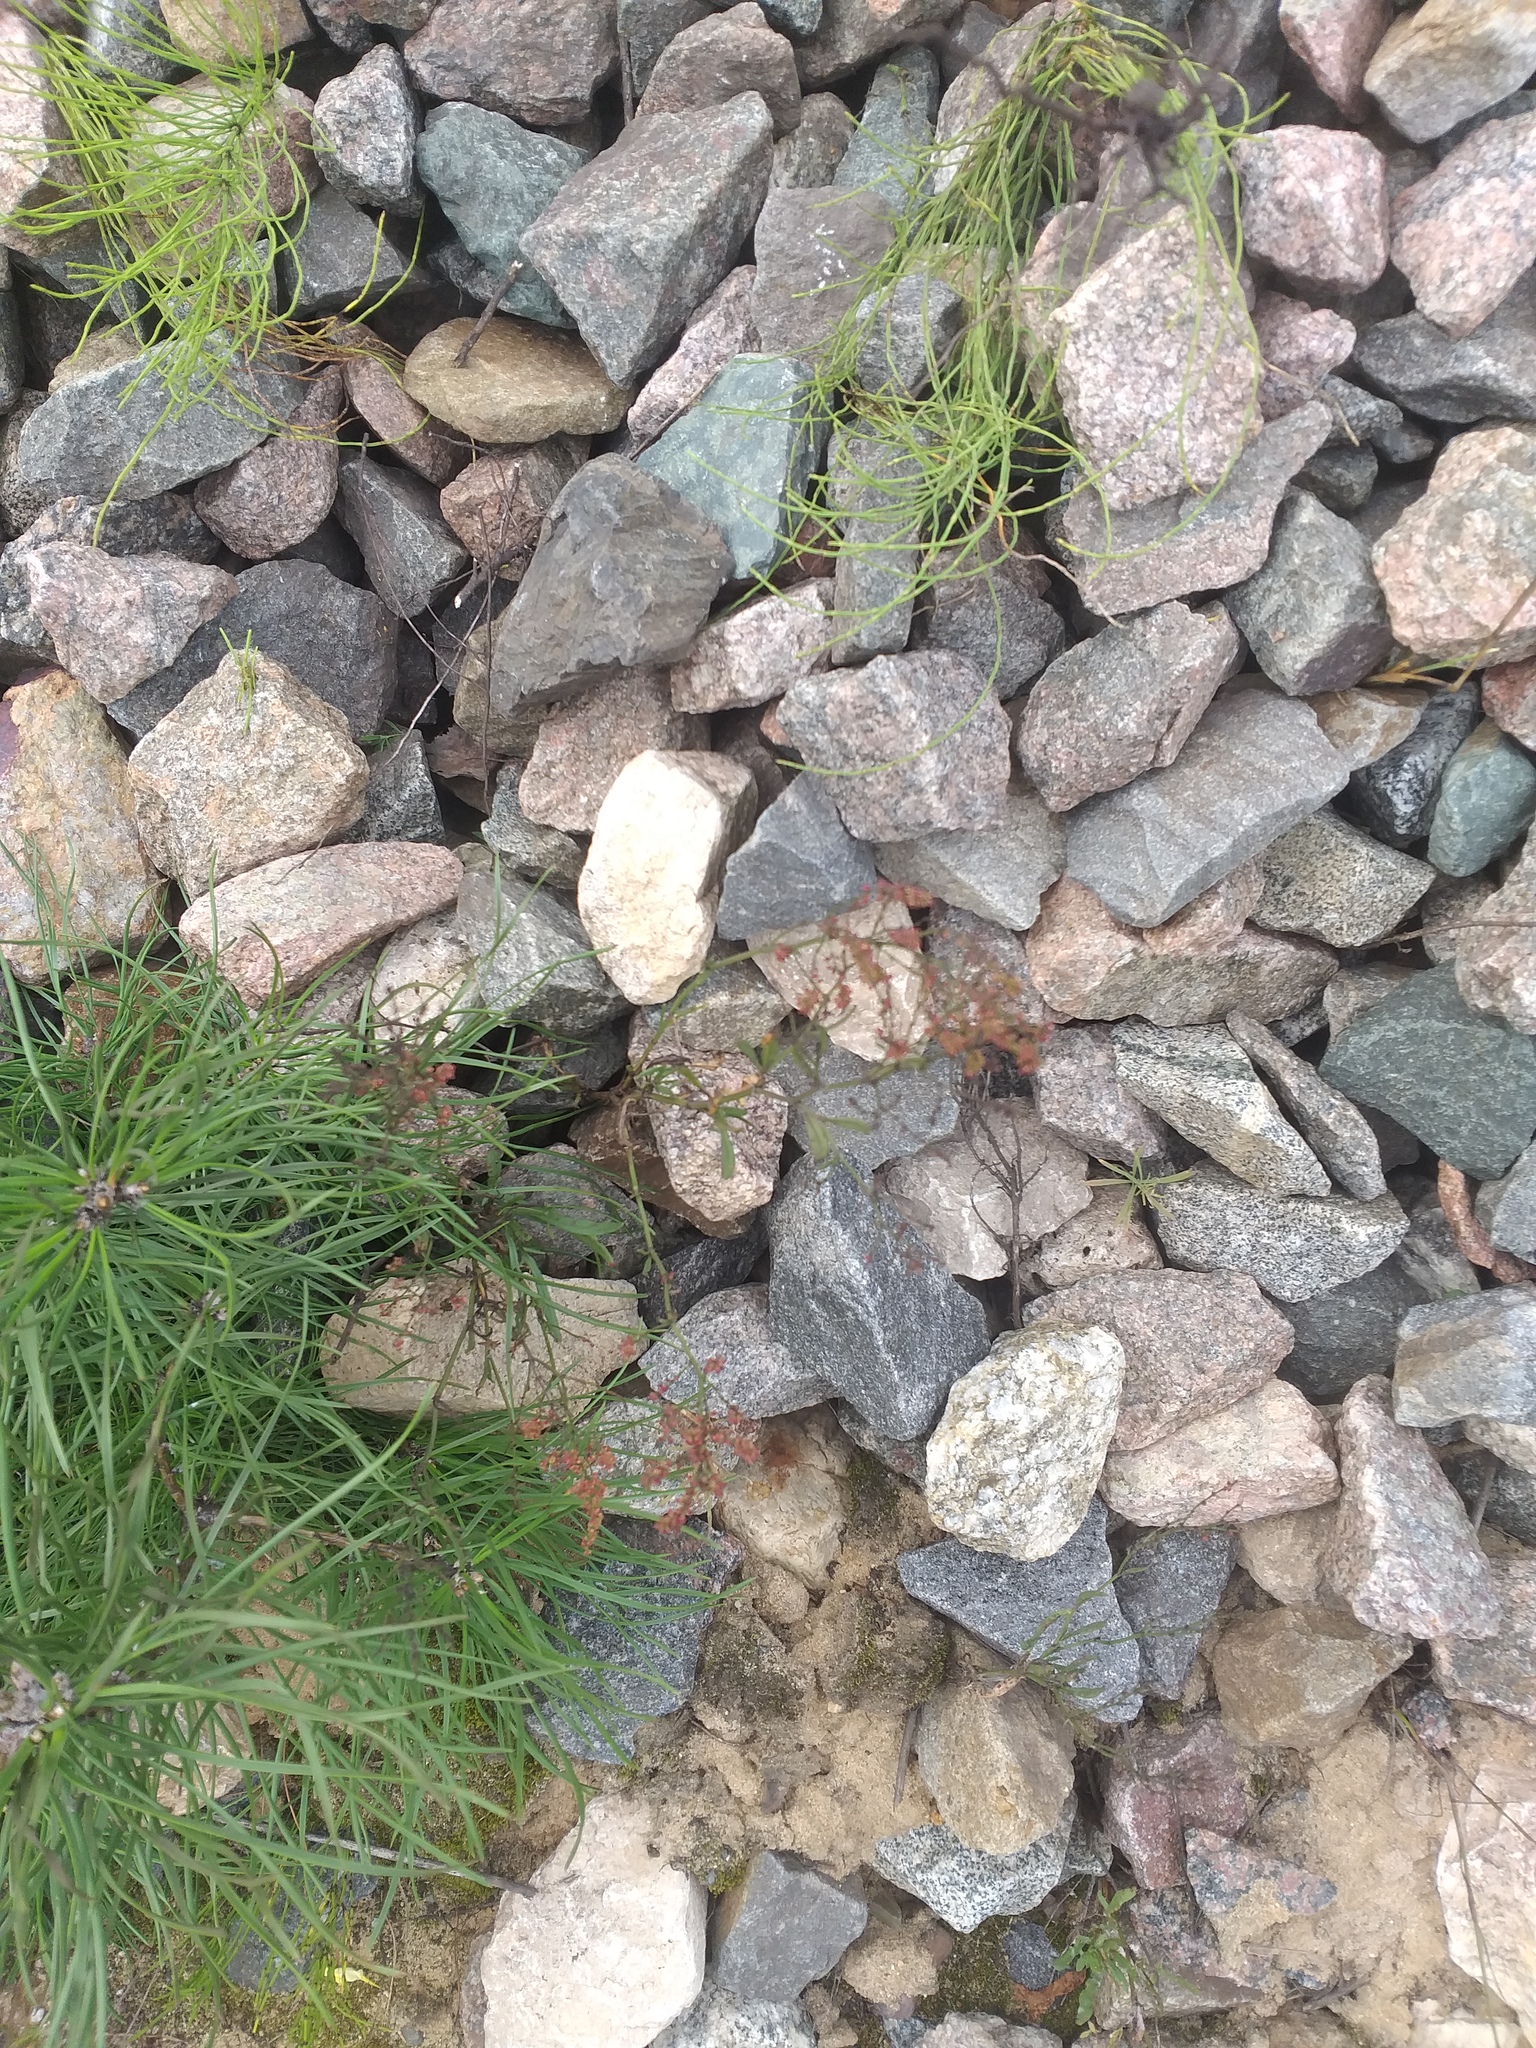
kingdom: Plantae
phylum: Tracheophyta
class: Magnoliopsida
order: Caryophyllales
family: Polygonaceae
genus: Rumex
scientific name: Rumex acetosella
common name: Common sheep sorrel
